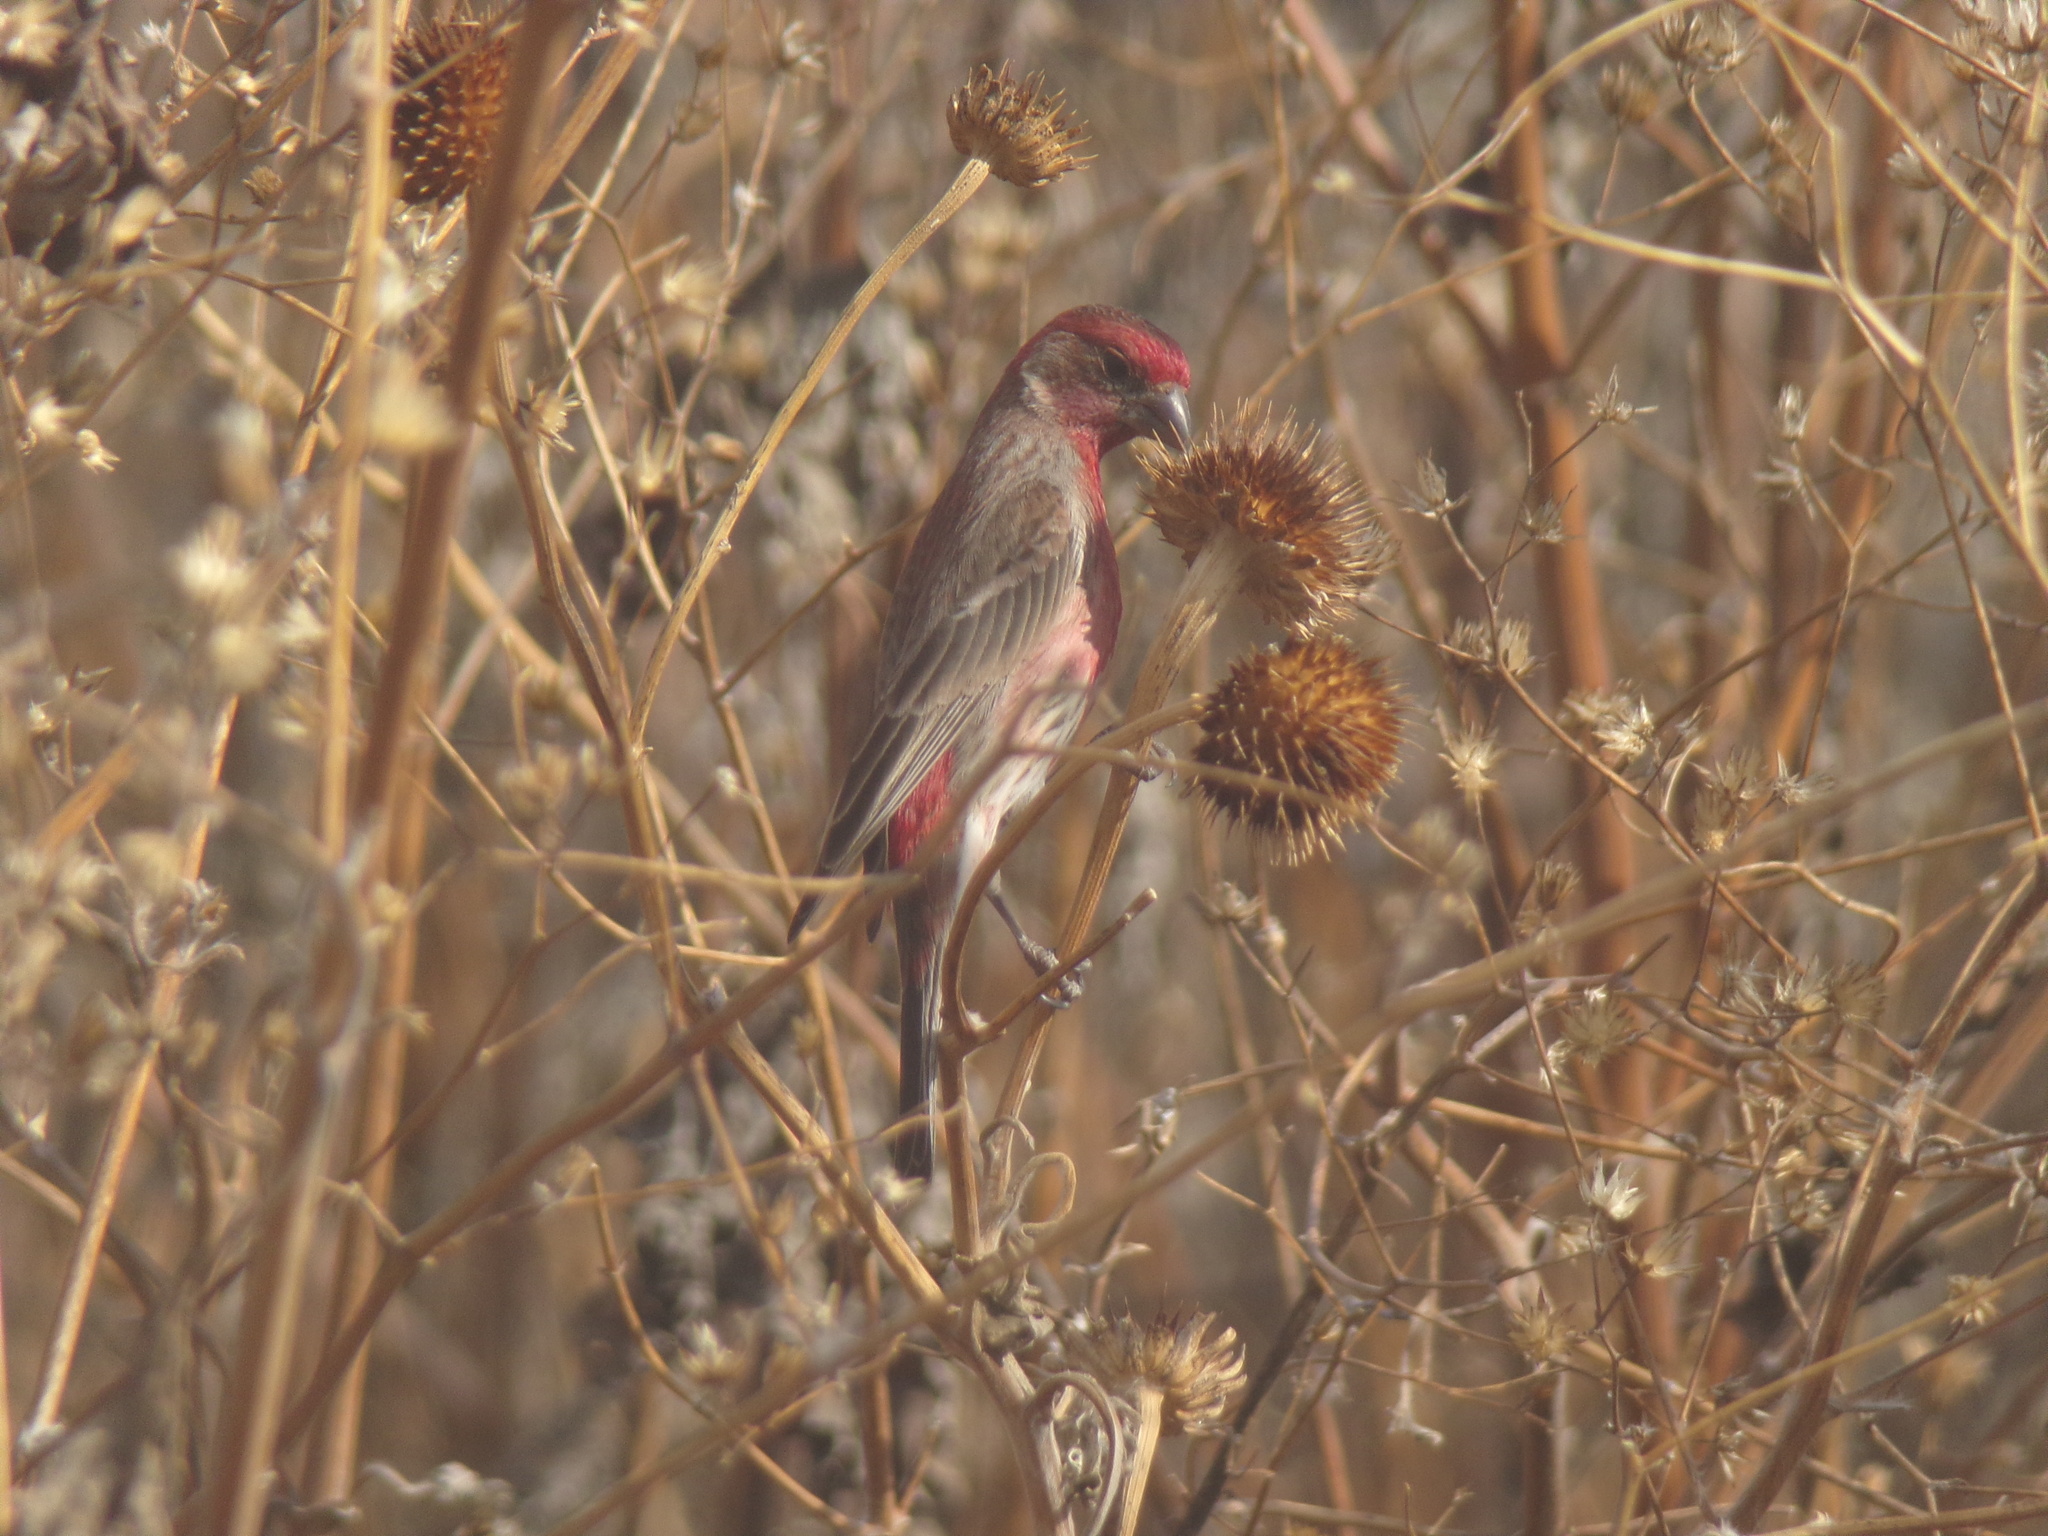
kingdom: Animalia
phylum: Chordata
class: Aves
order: Passeriformes
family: Fringillidae
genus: Haemorhous
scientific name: Haemorhous mexicanus
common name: House finch
